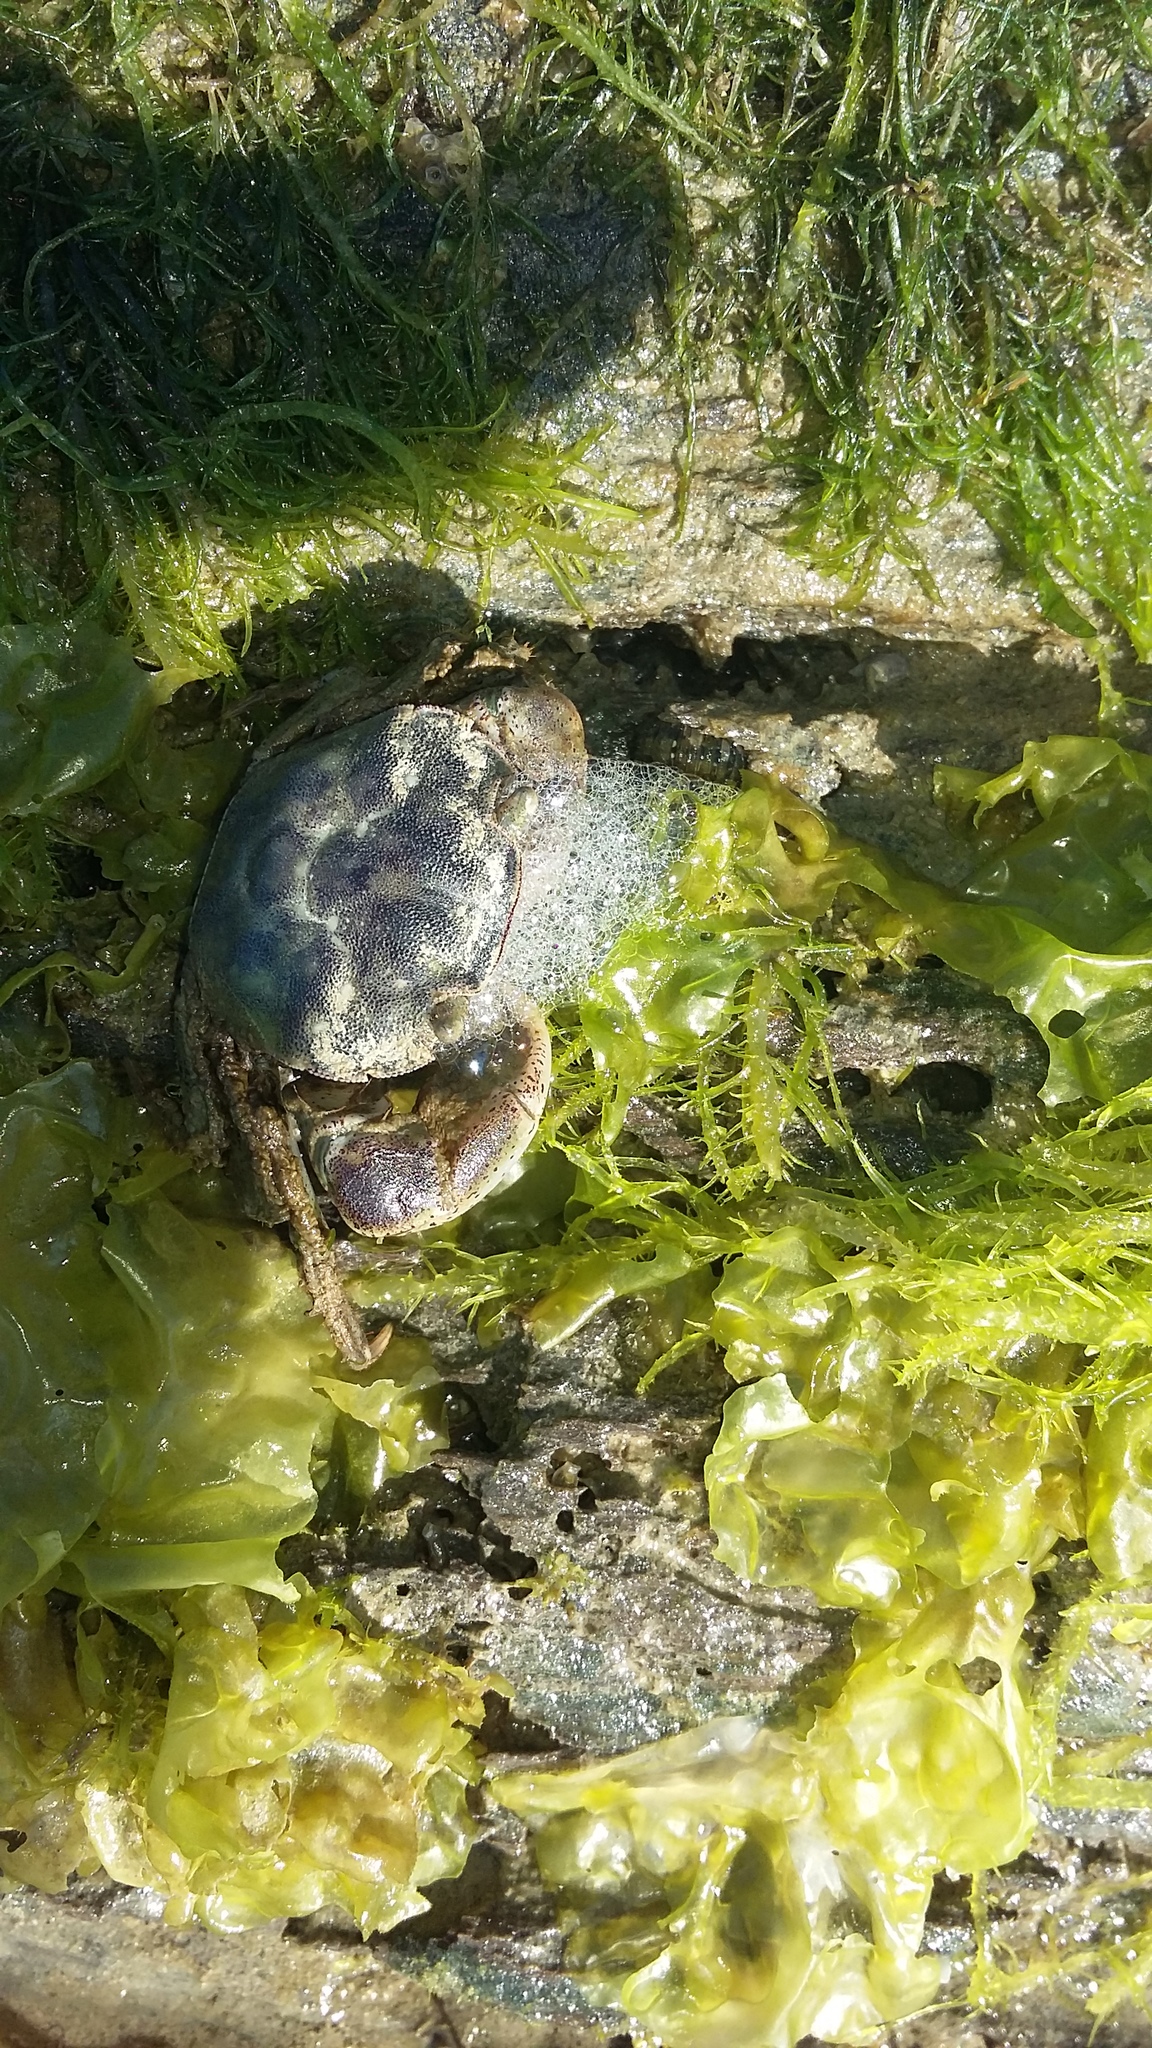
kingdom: Animalia
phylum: Arthropoda
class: Malacostraca
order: Decapoda
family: Varunidae
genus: Hemigrapsus
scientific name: Hemigrapsus crenulatus
